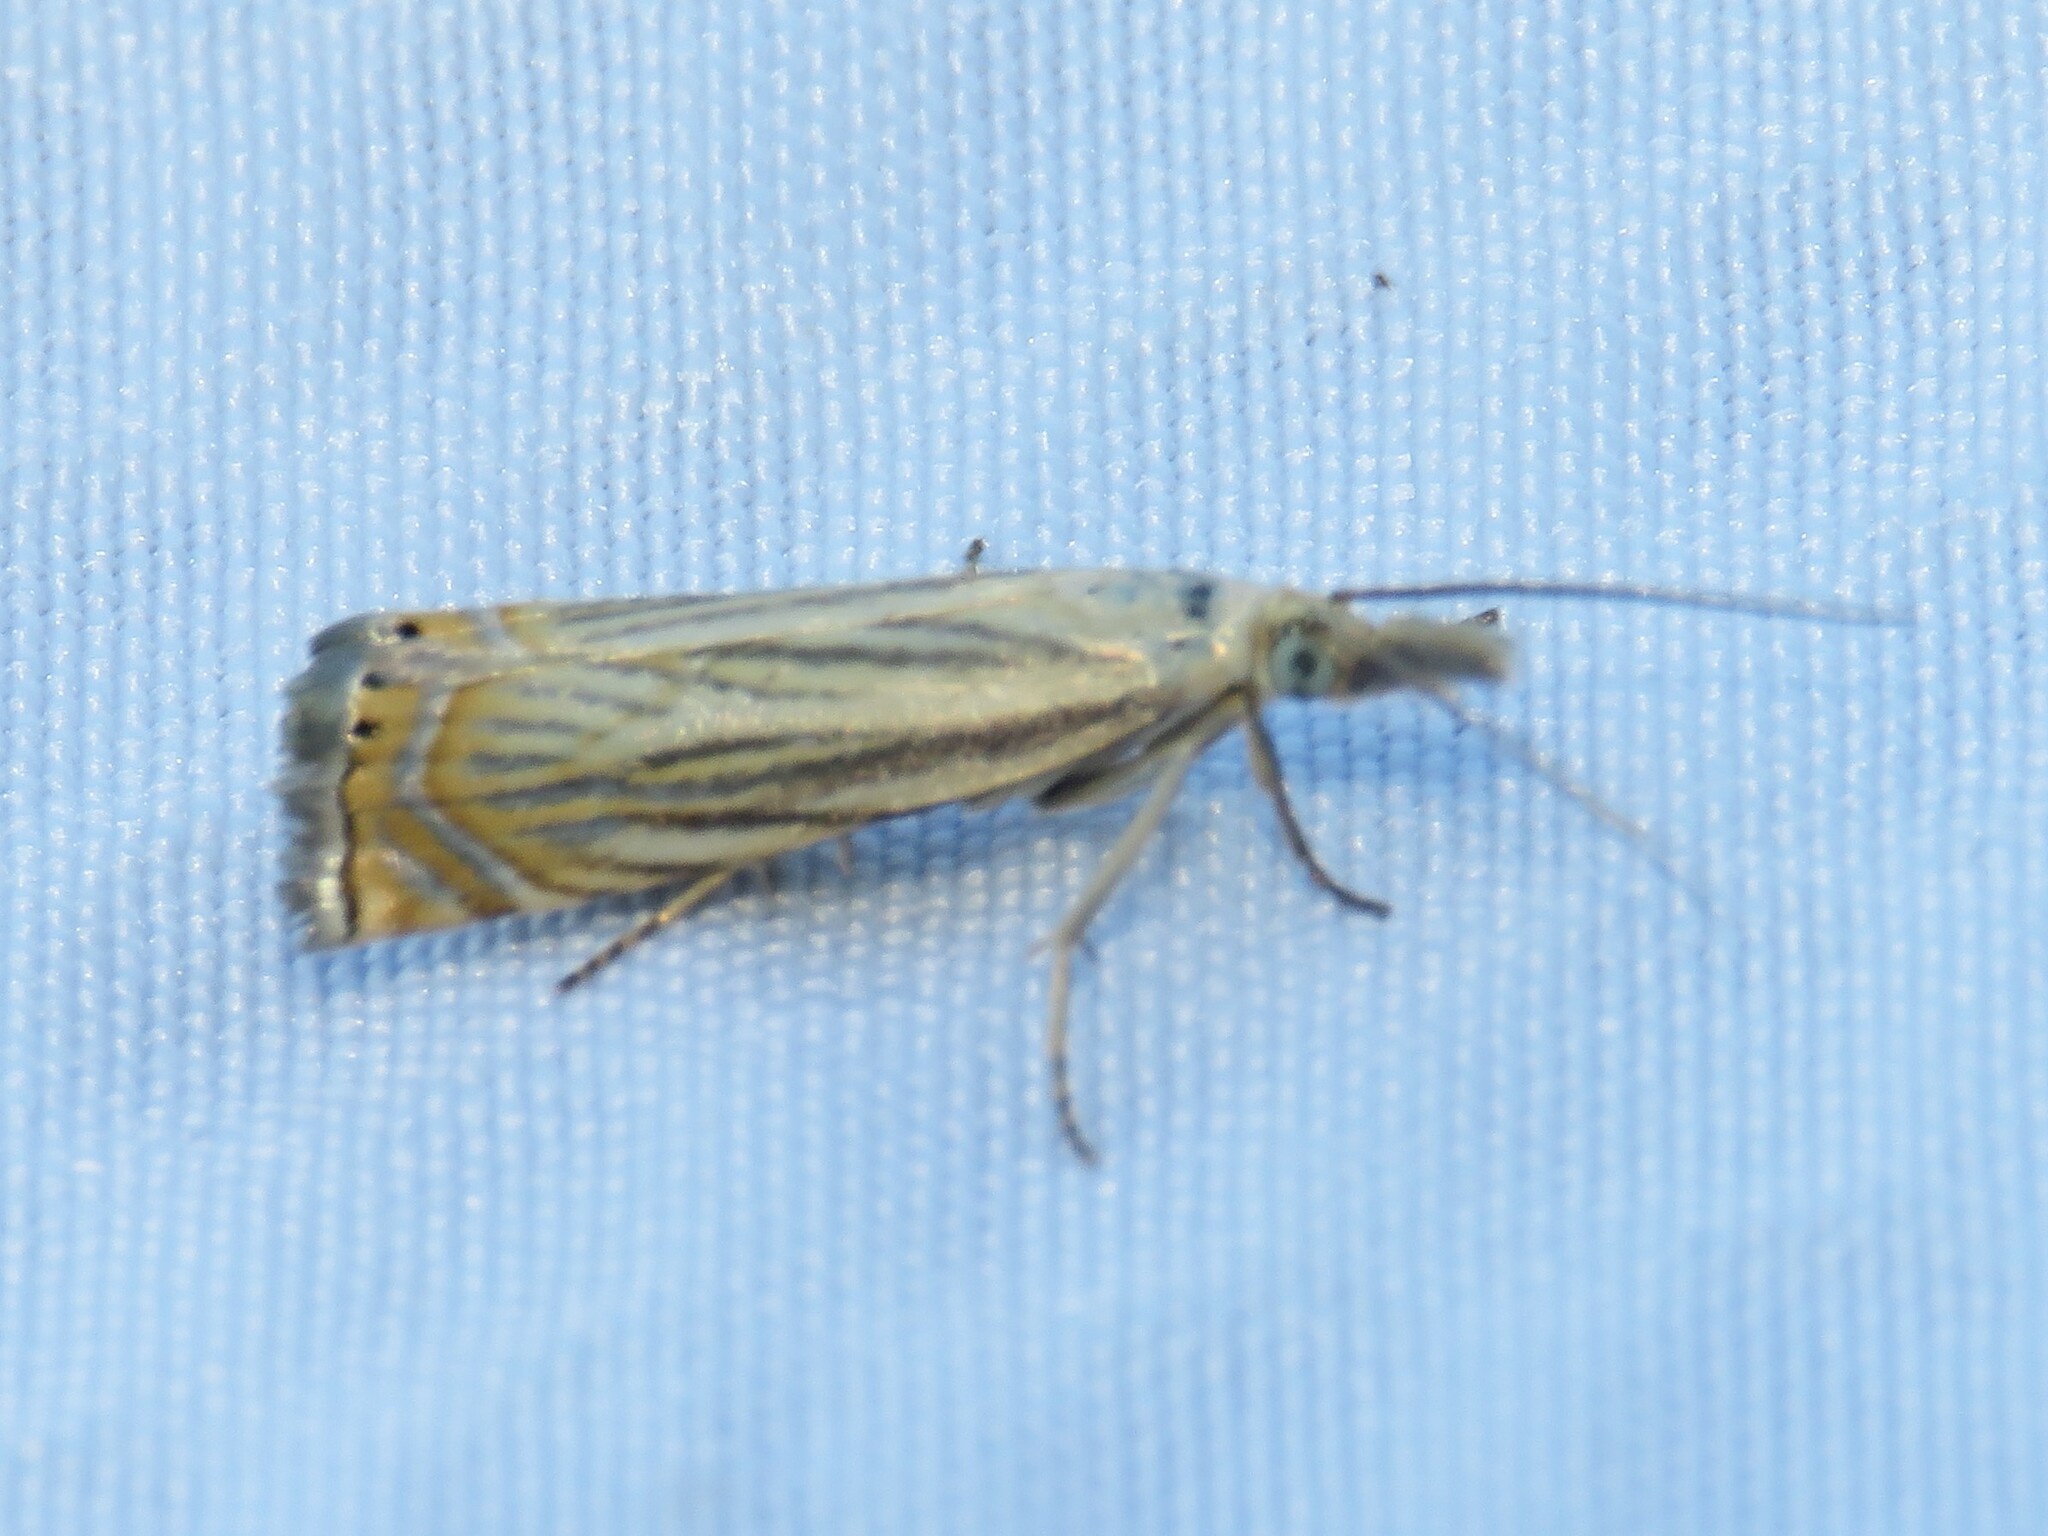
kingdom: Animalia
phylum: Arthropoda
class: Insecta
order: Lepidoptera
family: Crambidae
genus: Chrysoteuchia
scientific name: Chrysoteuchia topiarius
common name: Topiary grass-veneer
